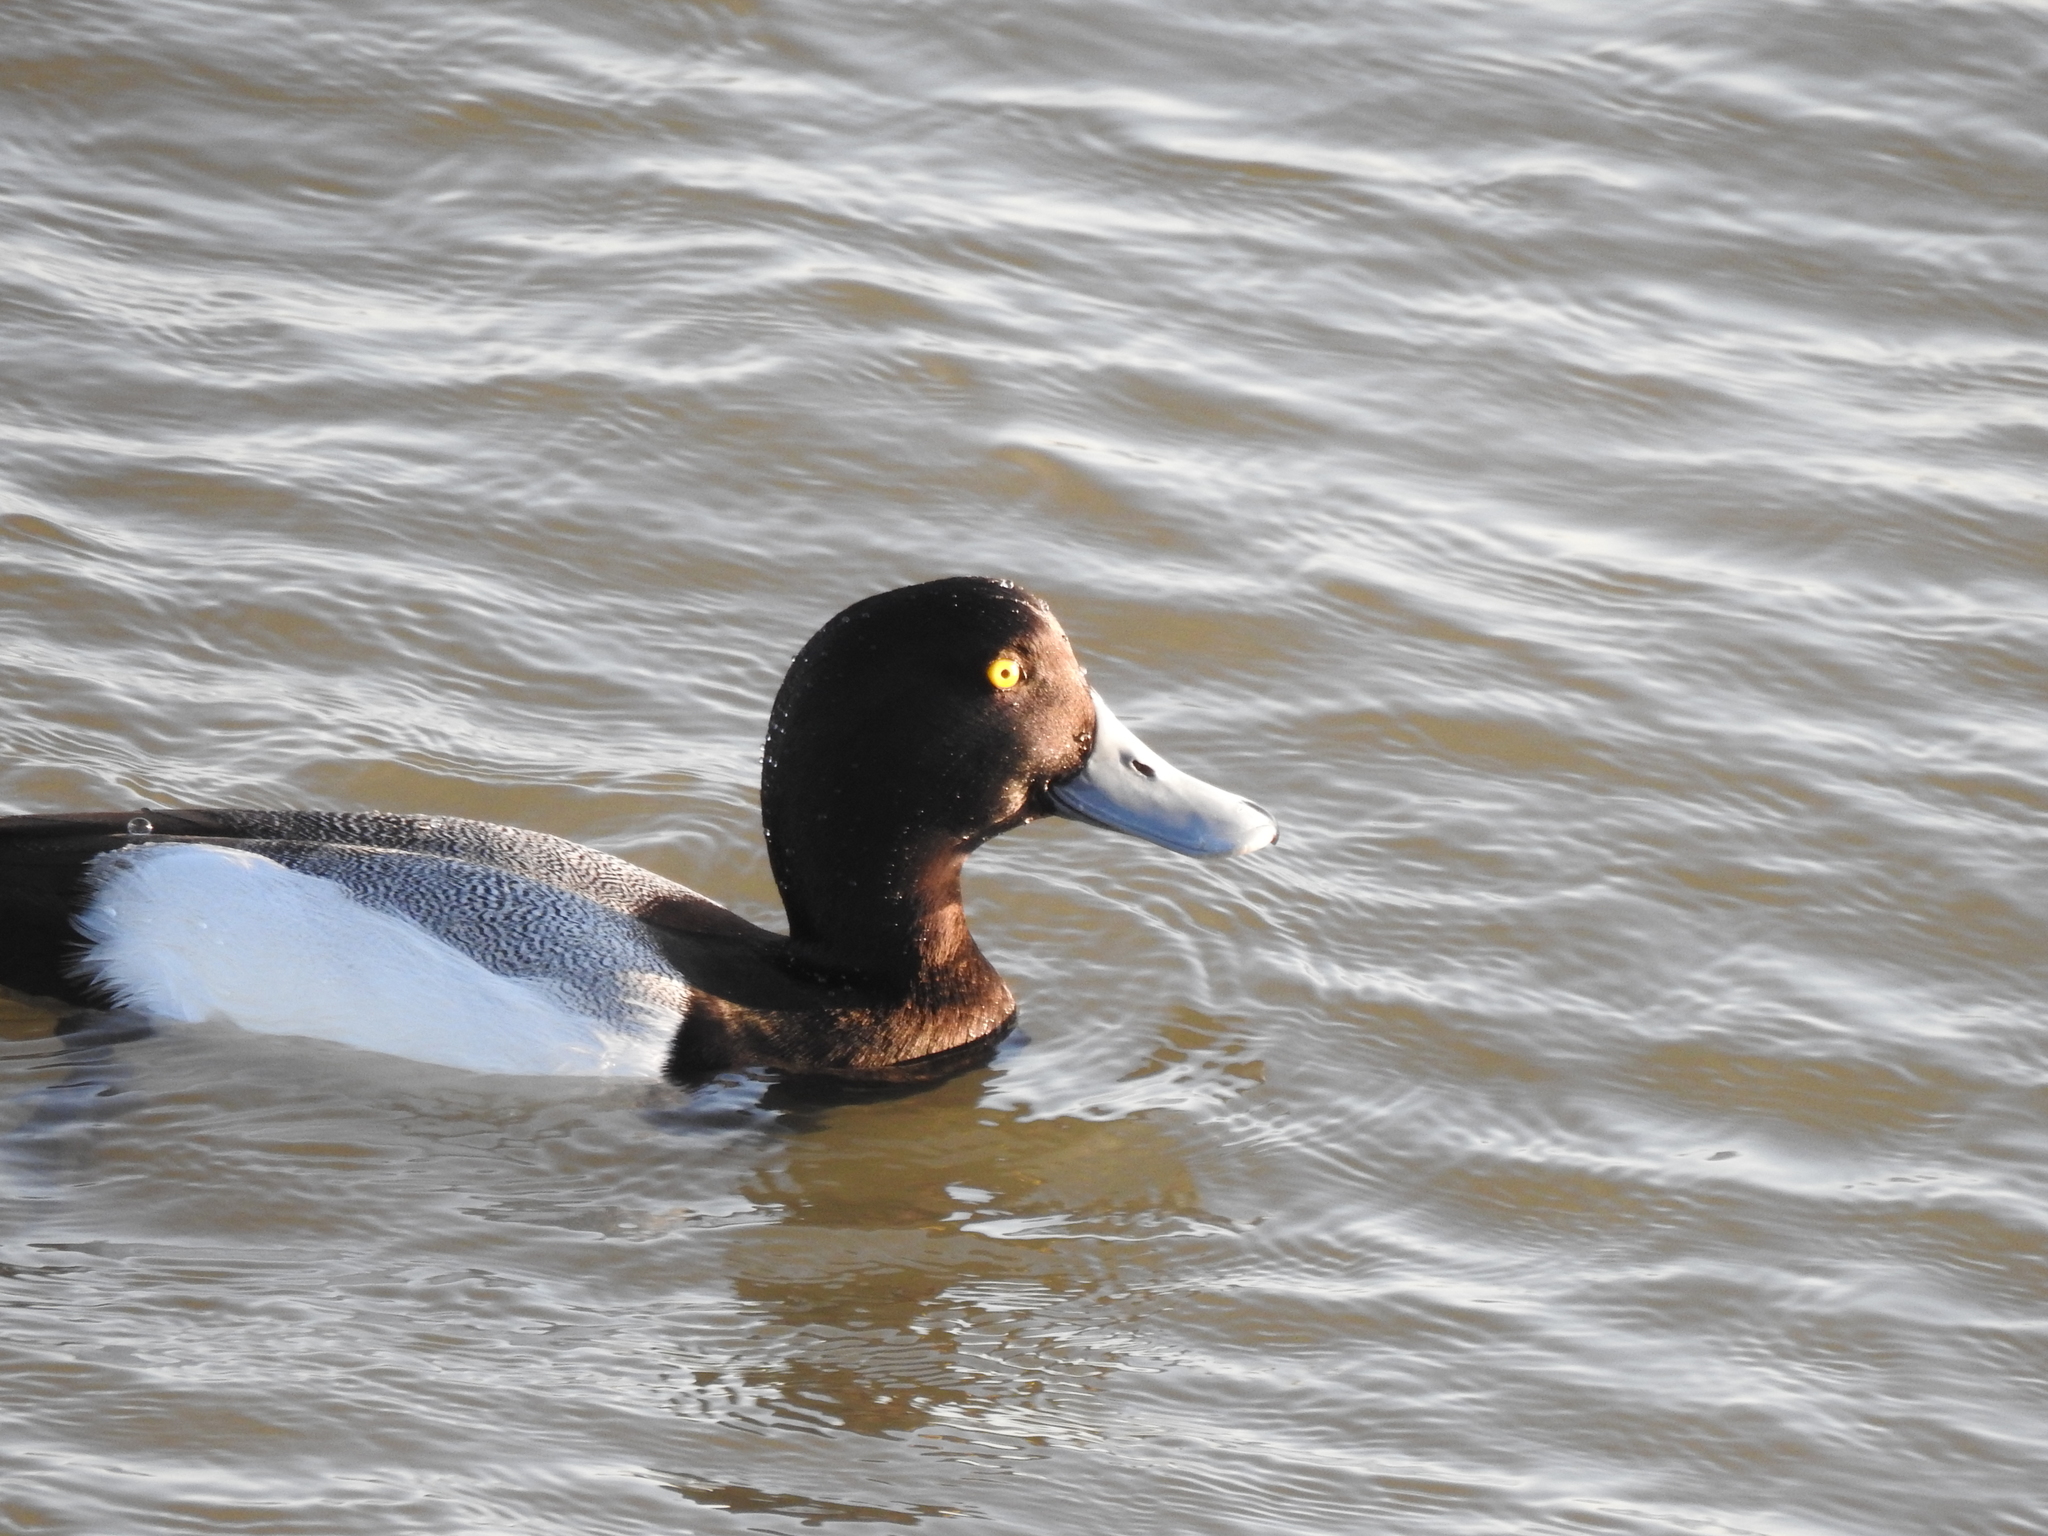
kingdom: Animalia
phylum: Chordata
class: Aves
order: Anseriformes
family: Anatidae
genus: Aythya
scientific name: Aythya marila
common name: Greater scaup
